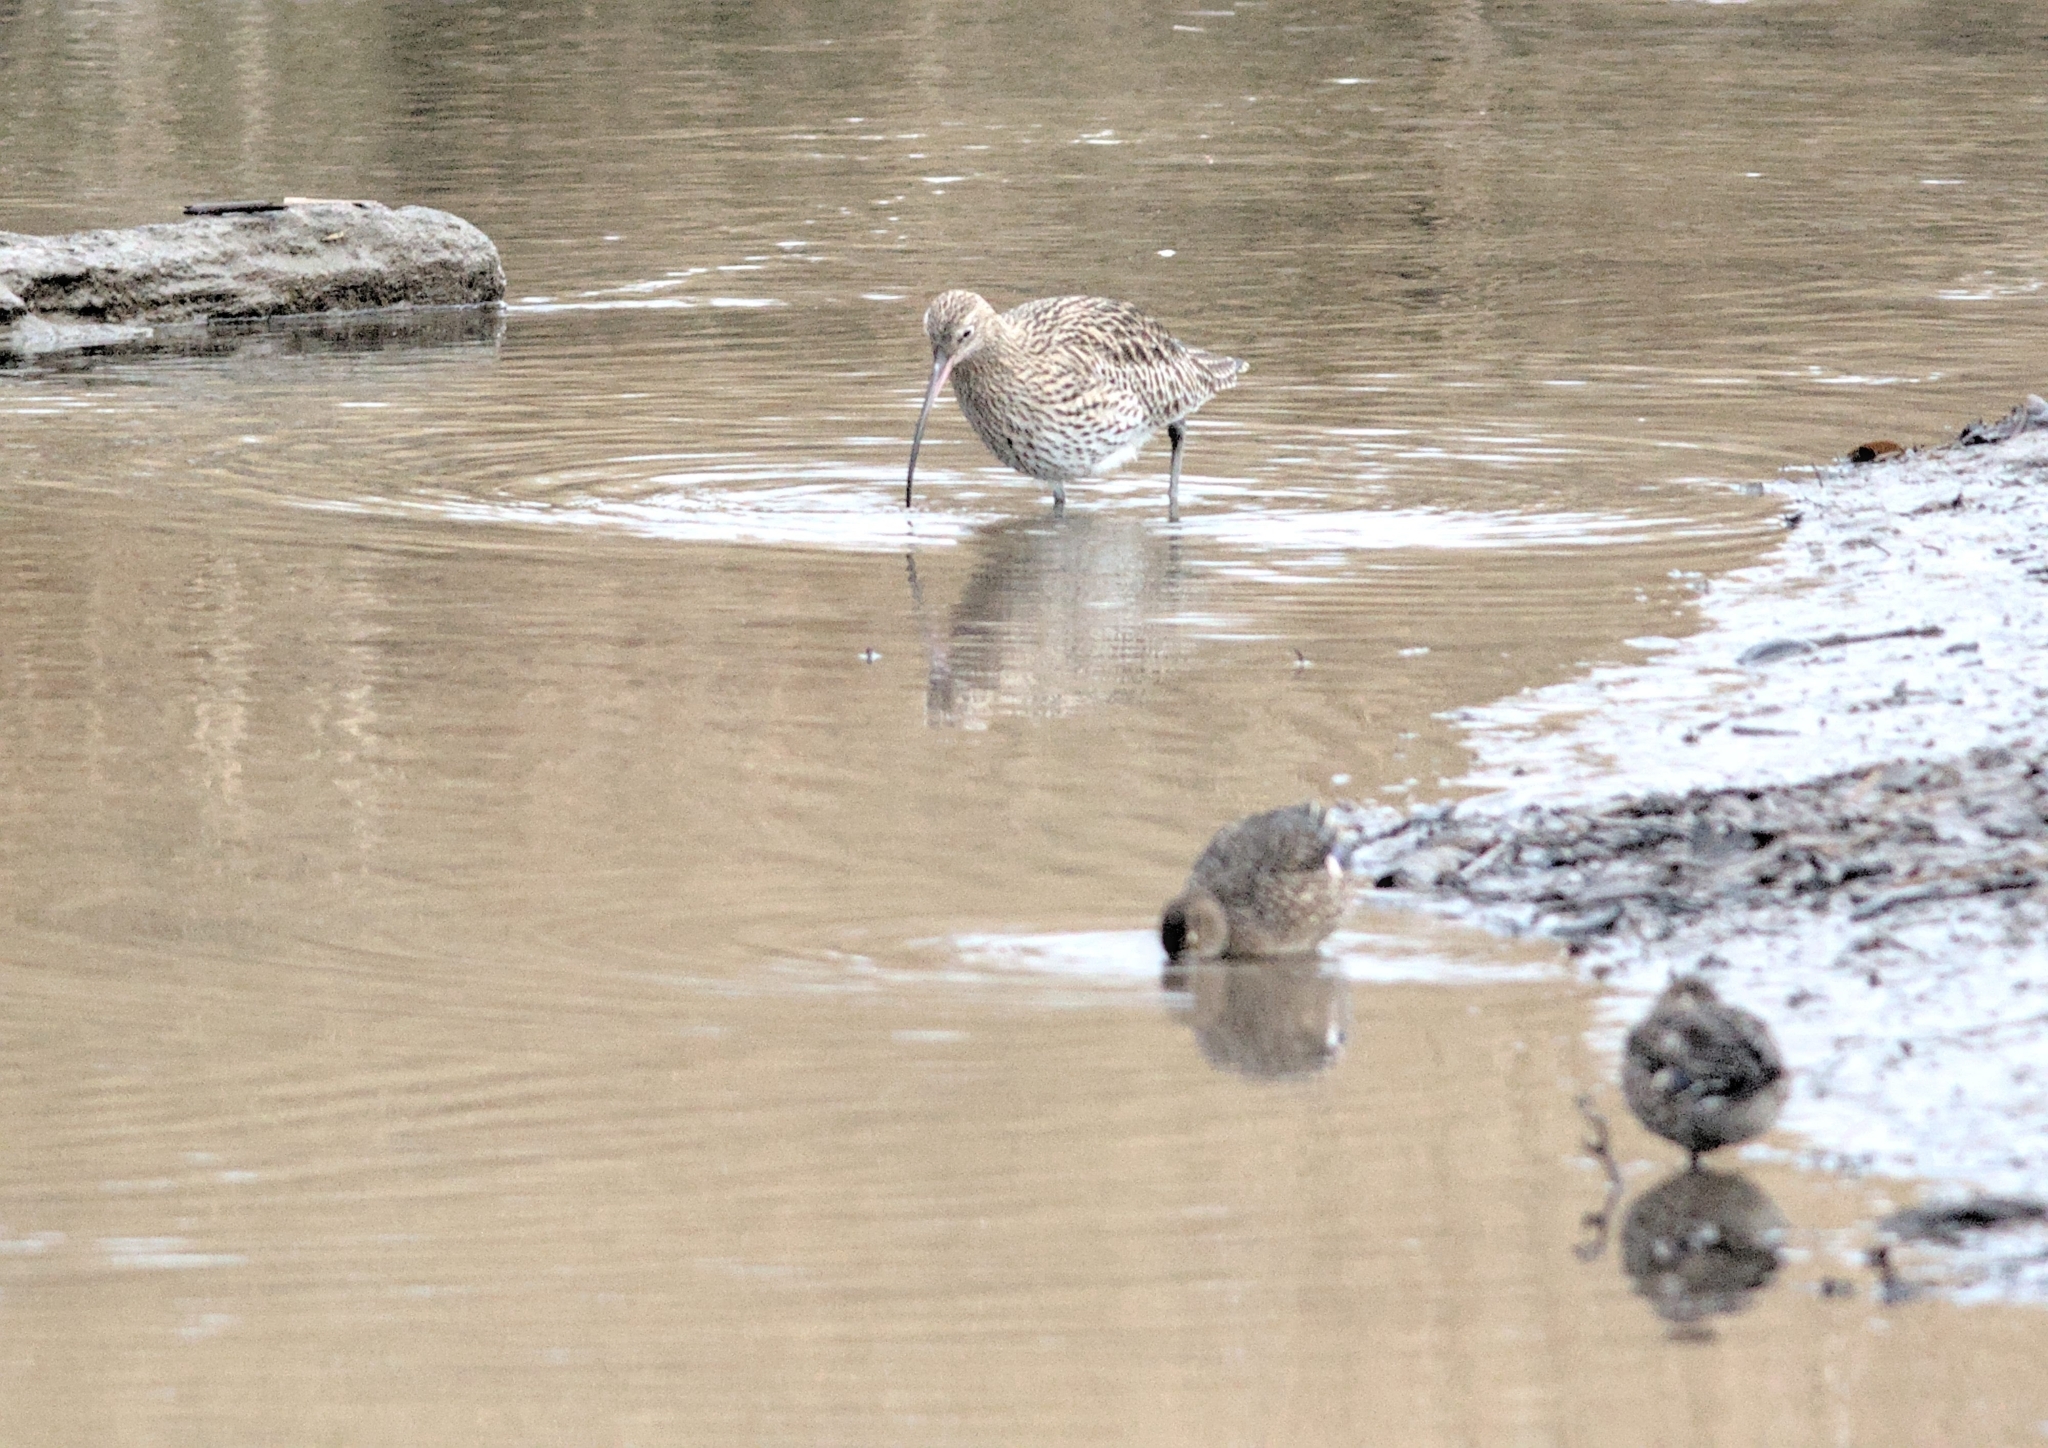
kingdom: Animalia
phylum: Chordata
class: Aves
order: Charadriiformes
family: Scolopacidae
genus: Numenius
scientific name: Numenius arquata
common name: Eurasian curlew
